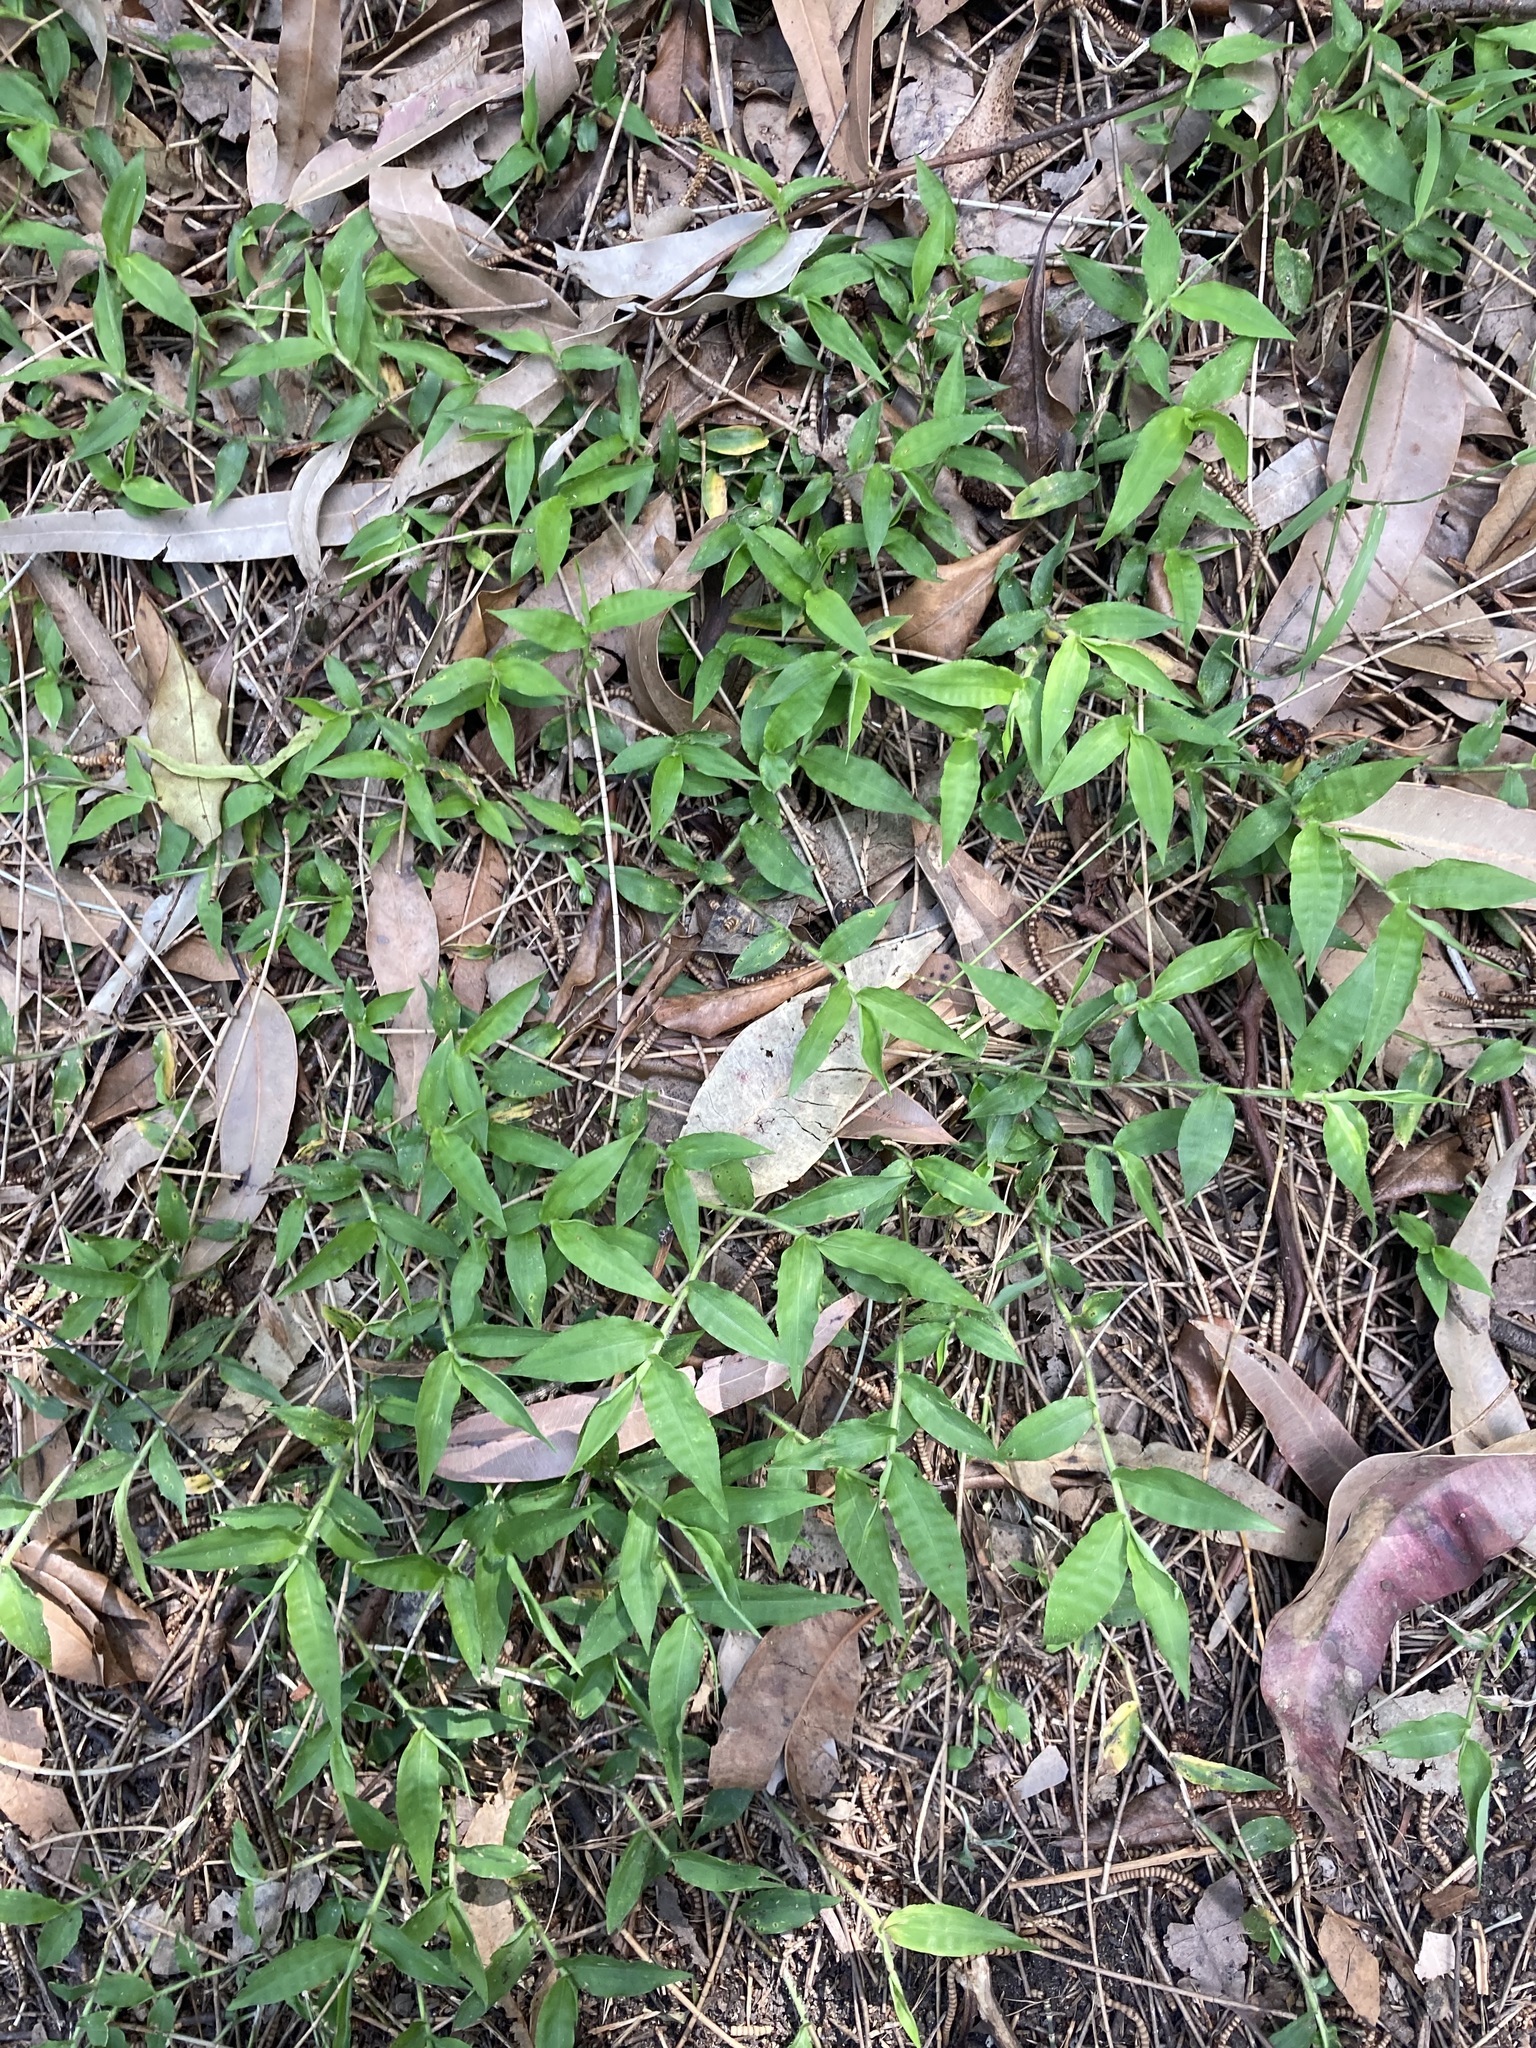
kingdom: Plantae
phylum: Tracheophyta
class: Liliopsida
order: Poales
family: Poaceae
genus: Oplismenus
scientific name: Oplismenus hirtellus
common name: Basketgrass
